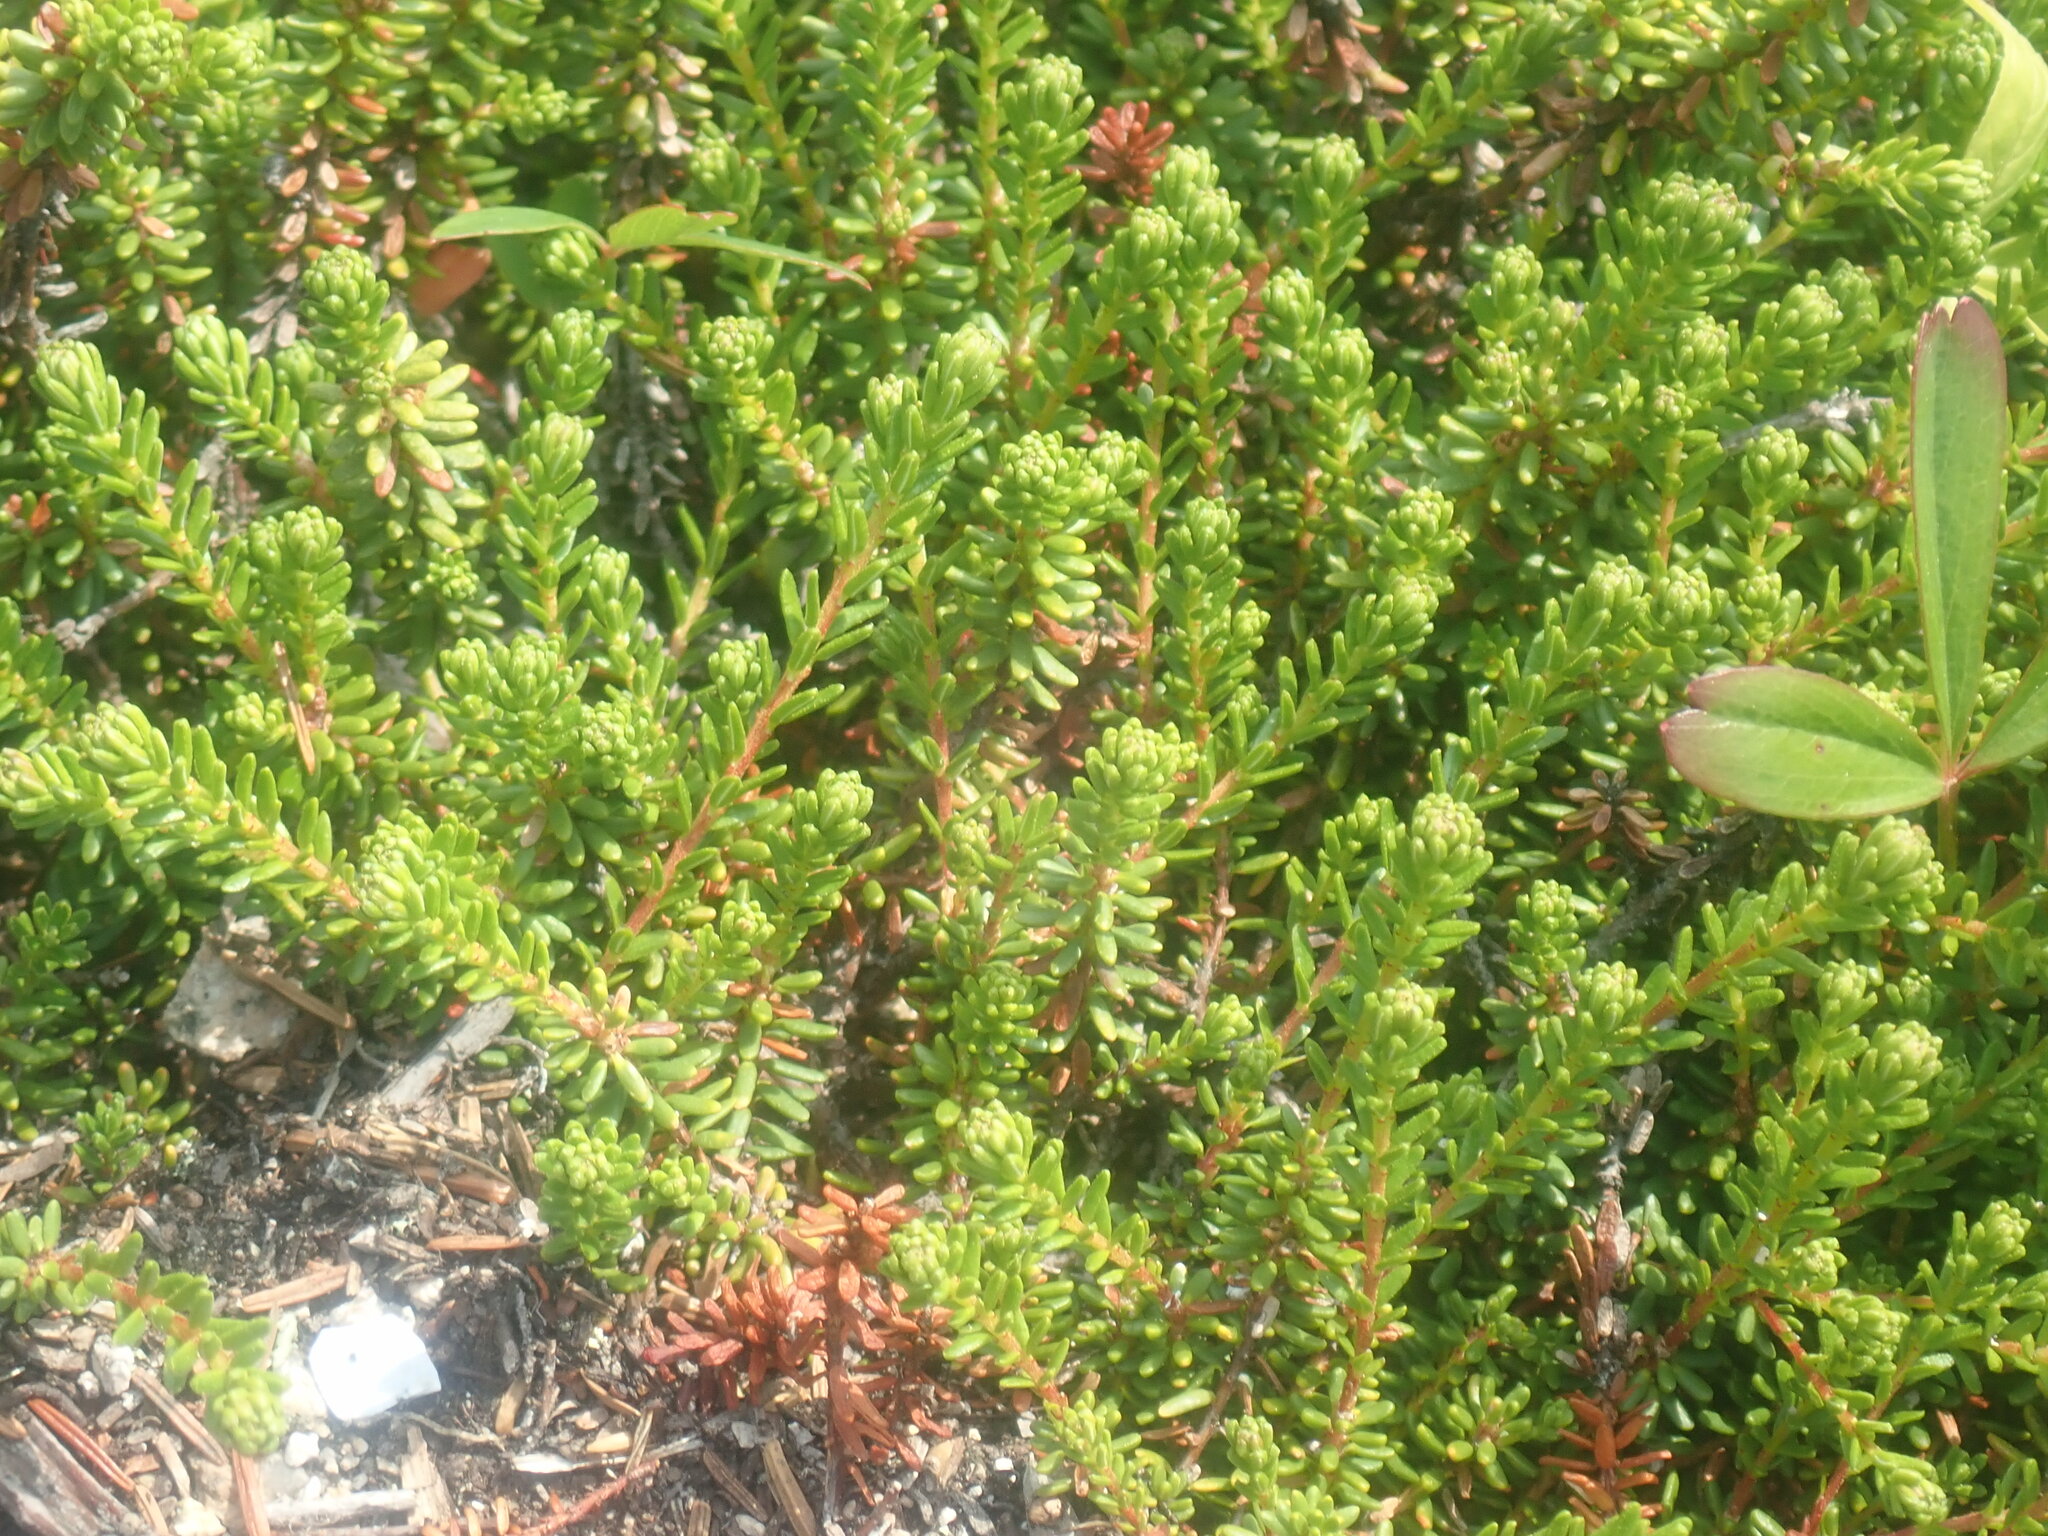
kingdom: Plantae
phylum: Tracheophyta
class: Magnoliopsida
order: Ericales
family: Ericaceae
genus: Empetrum
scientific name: Empetrum nigrum
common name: Black crowberry
